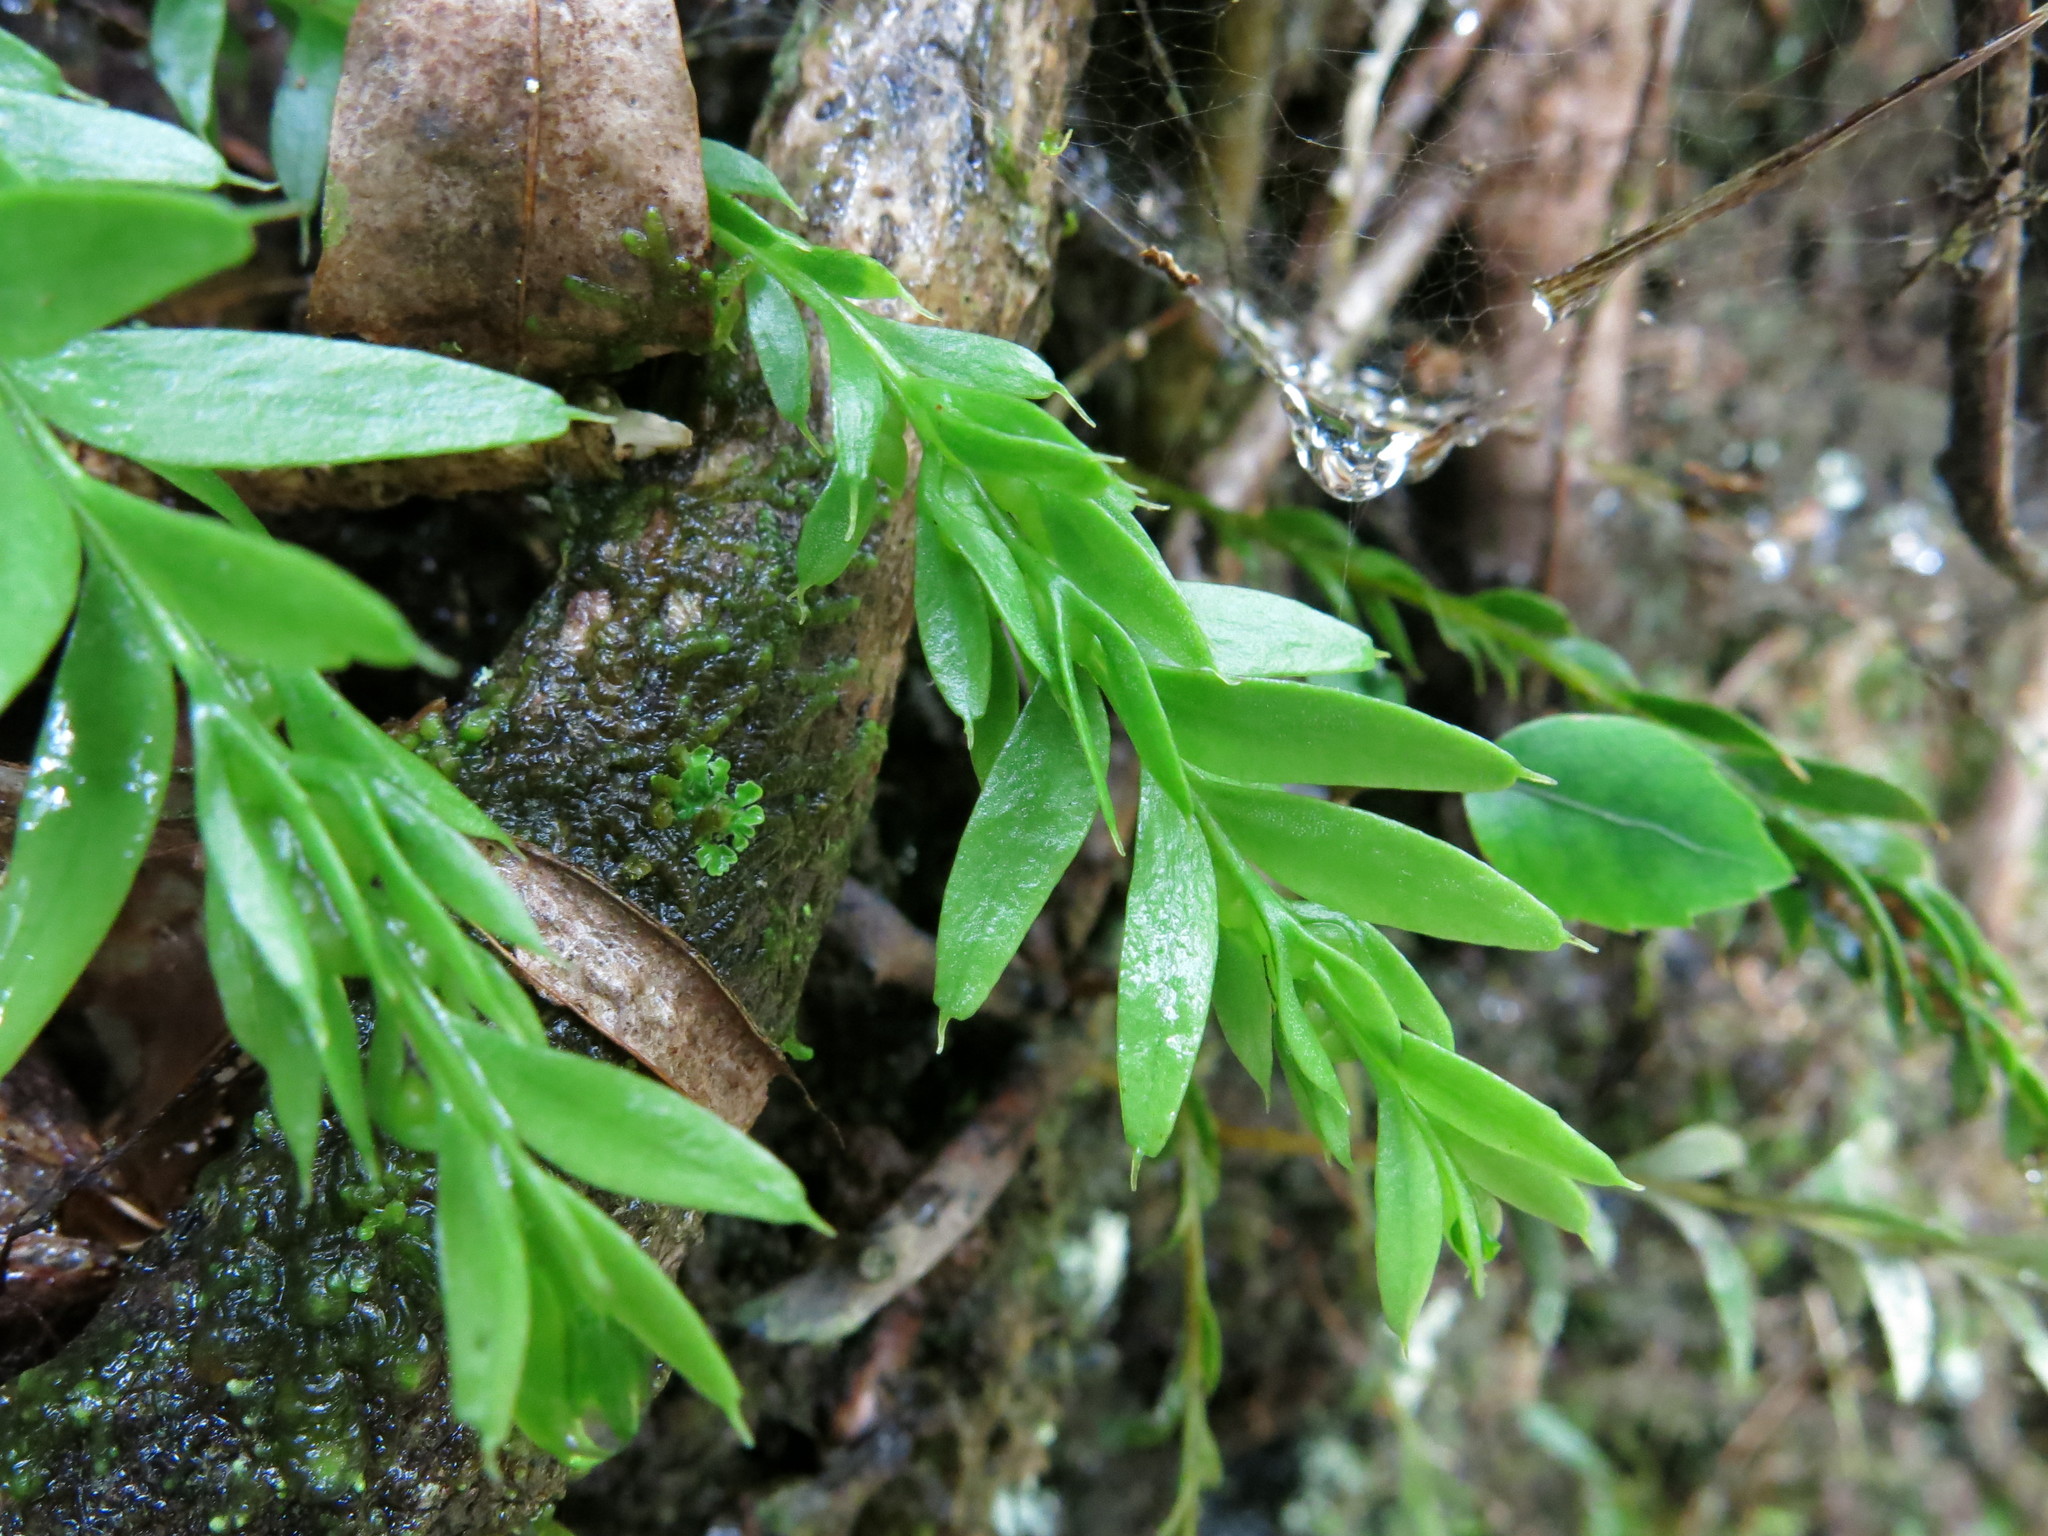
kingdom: Plantae
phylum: Tracheophyta
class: Polypodiopsida
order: Psilotales
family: Psilotaceae
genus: Tmesipteris
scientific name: Tmesipteris tannensis
